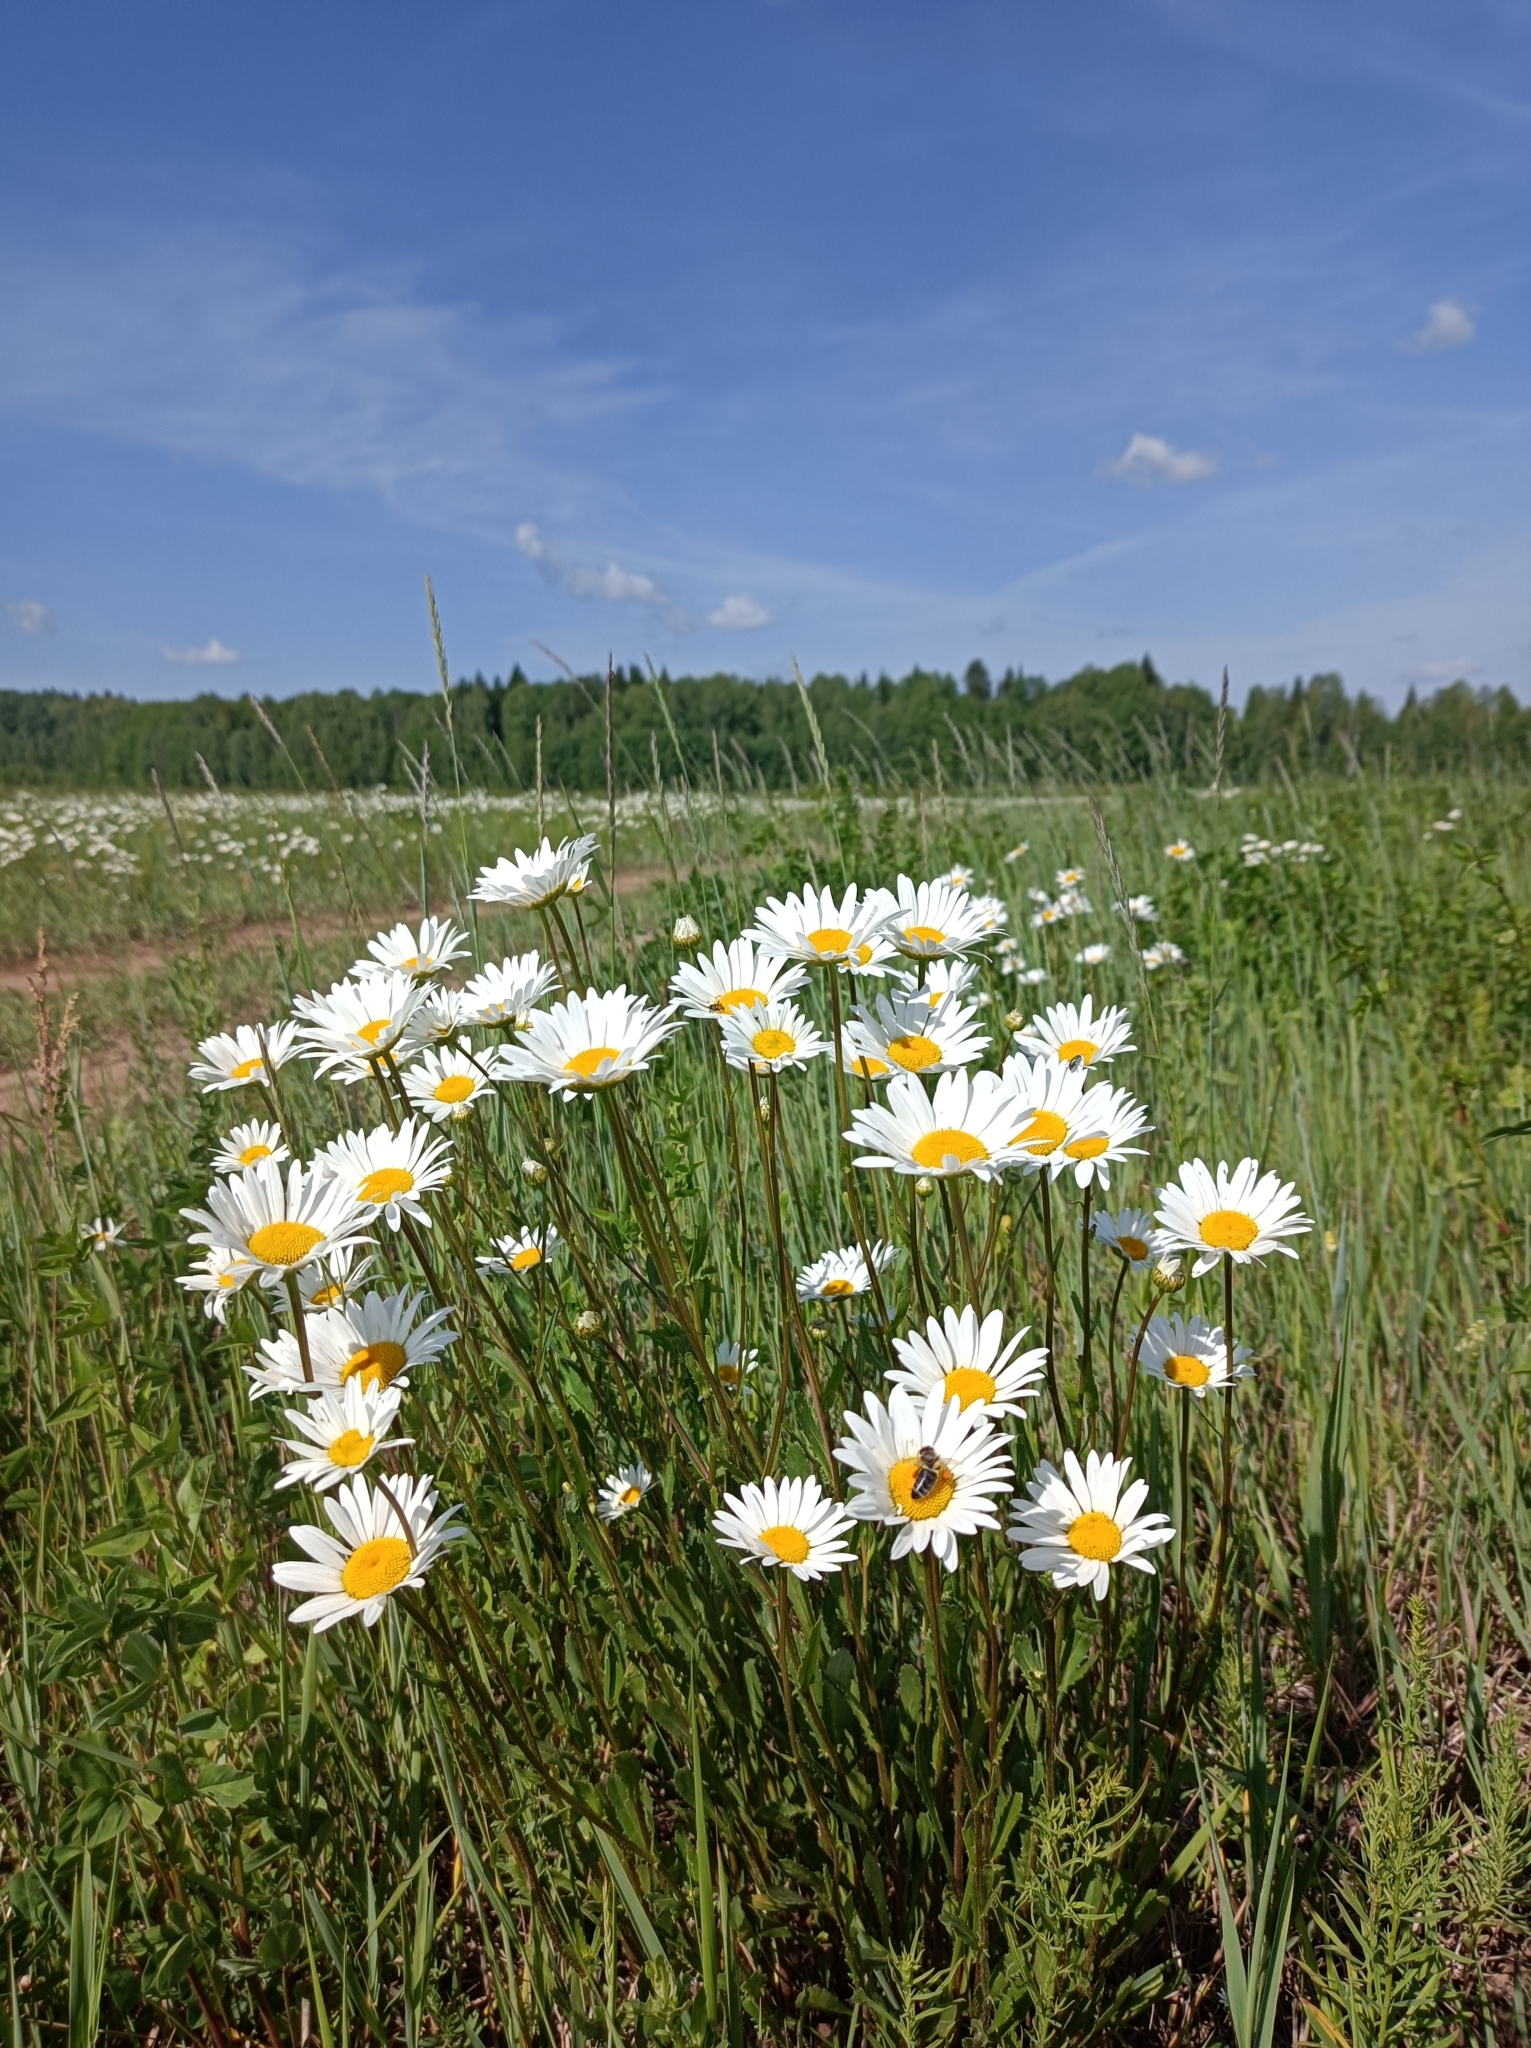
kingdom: Plantae
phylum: Tracheophyta
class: Magnoliopsida
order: Asterales
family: Asteraceae
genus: Leucanthemum
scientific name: Leucanthemum vulgare
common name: Oxeye daisy
